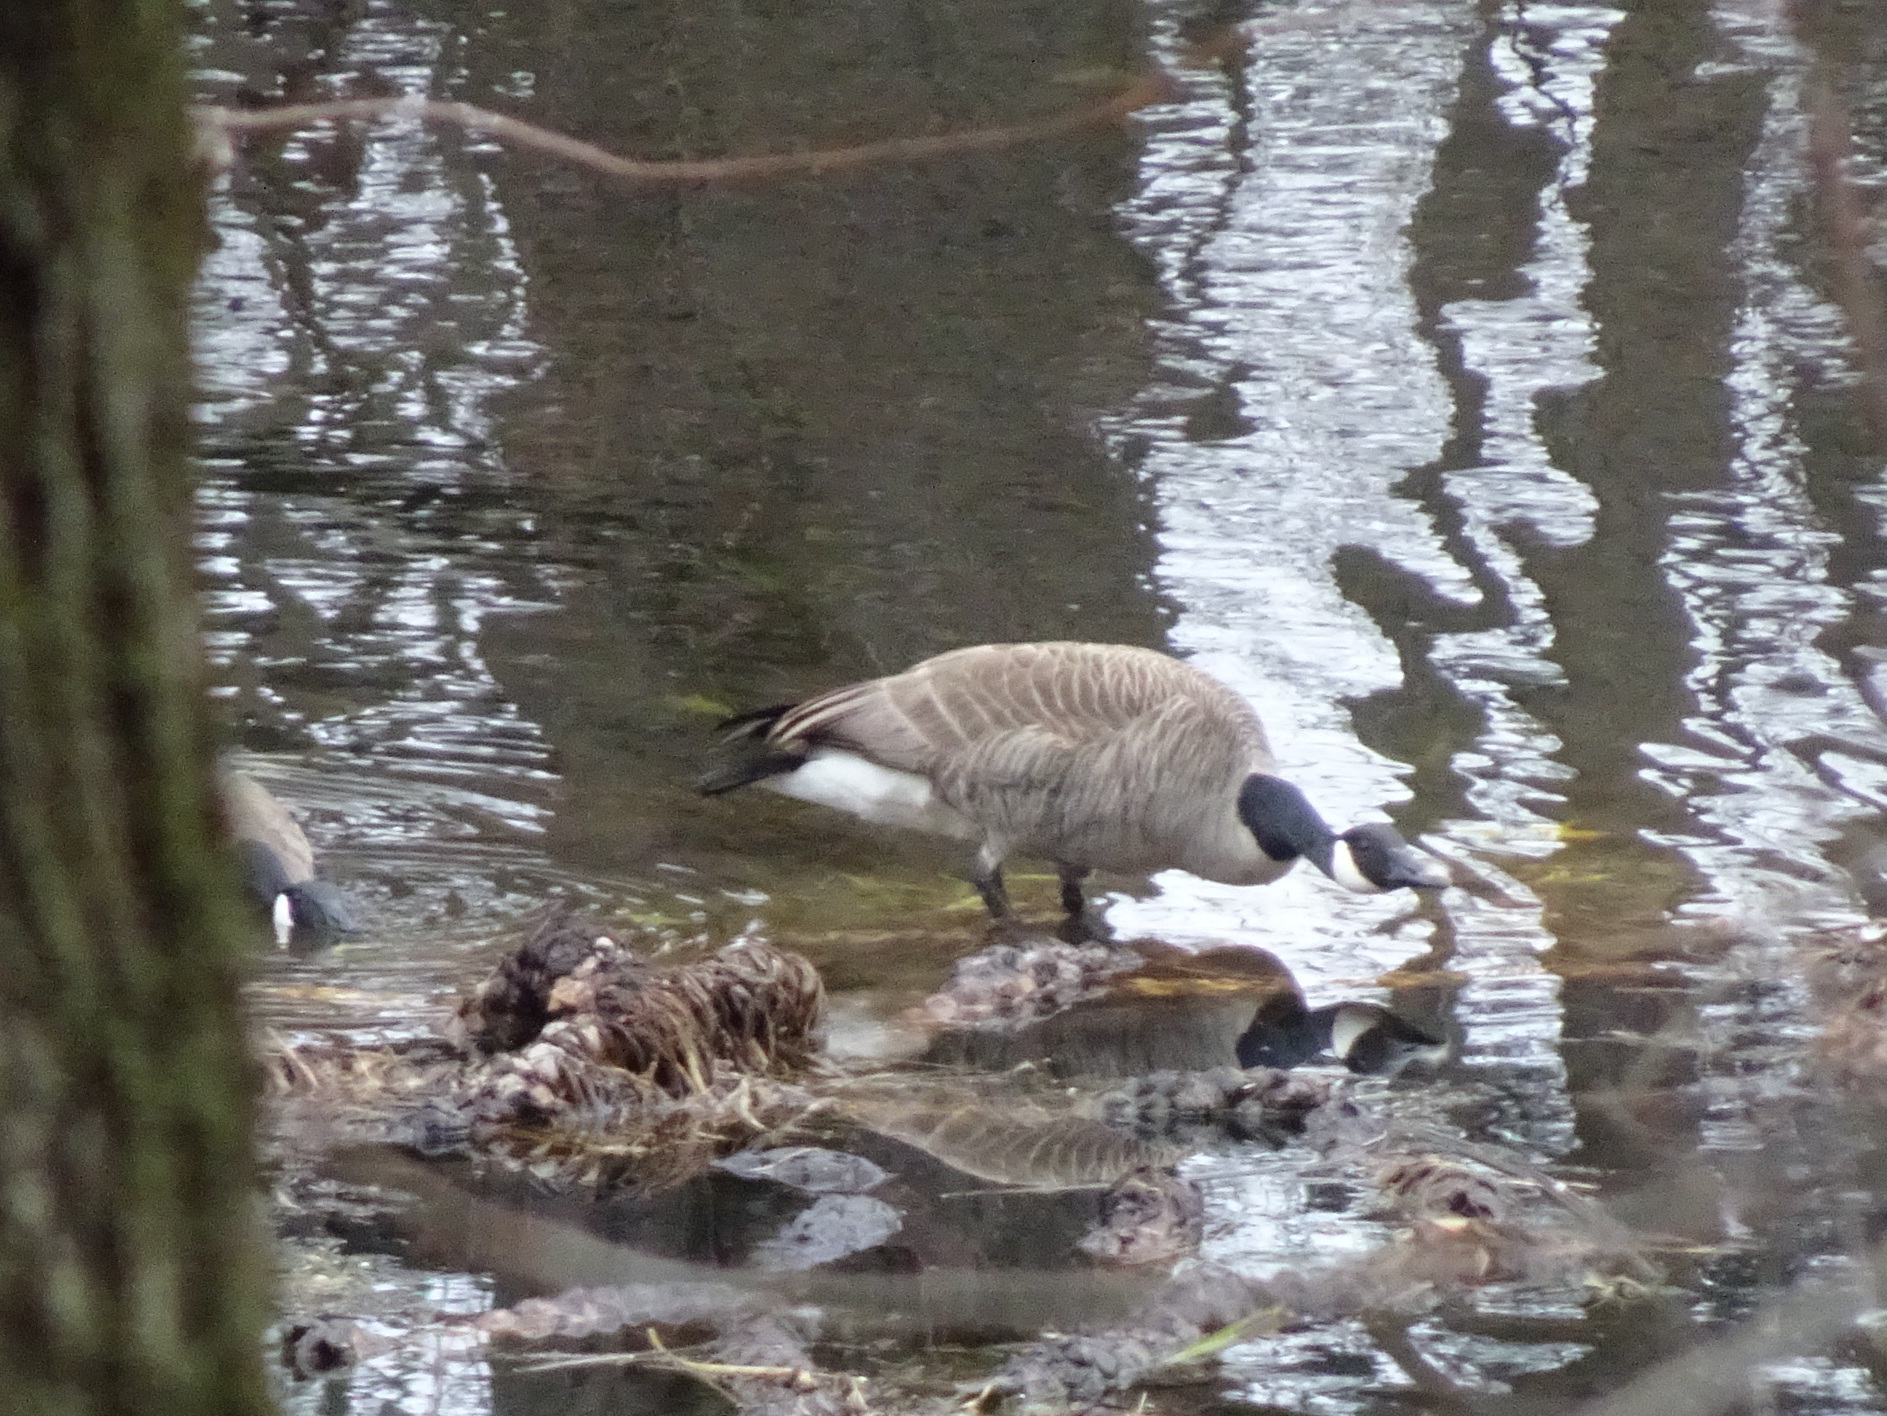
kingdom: Animalia
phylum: Chordata
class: Aves
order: Anseriformes
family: Anatidae
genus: Branta
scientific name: Branta canadensis
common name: Canada goose
